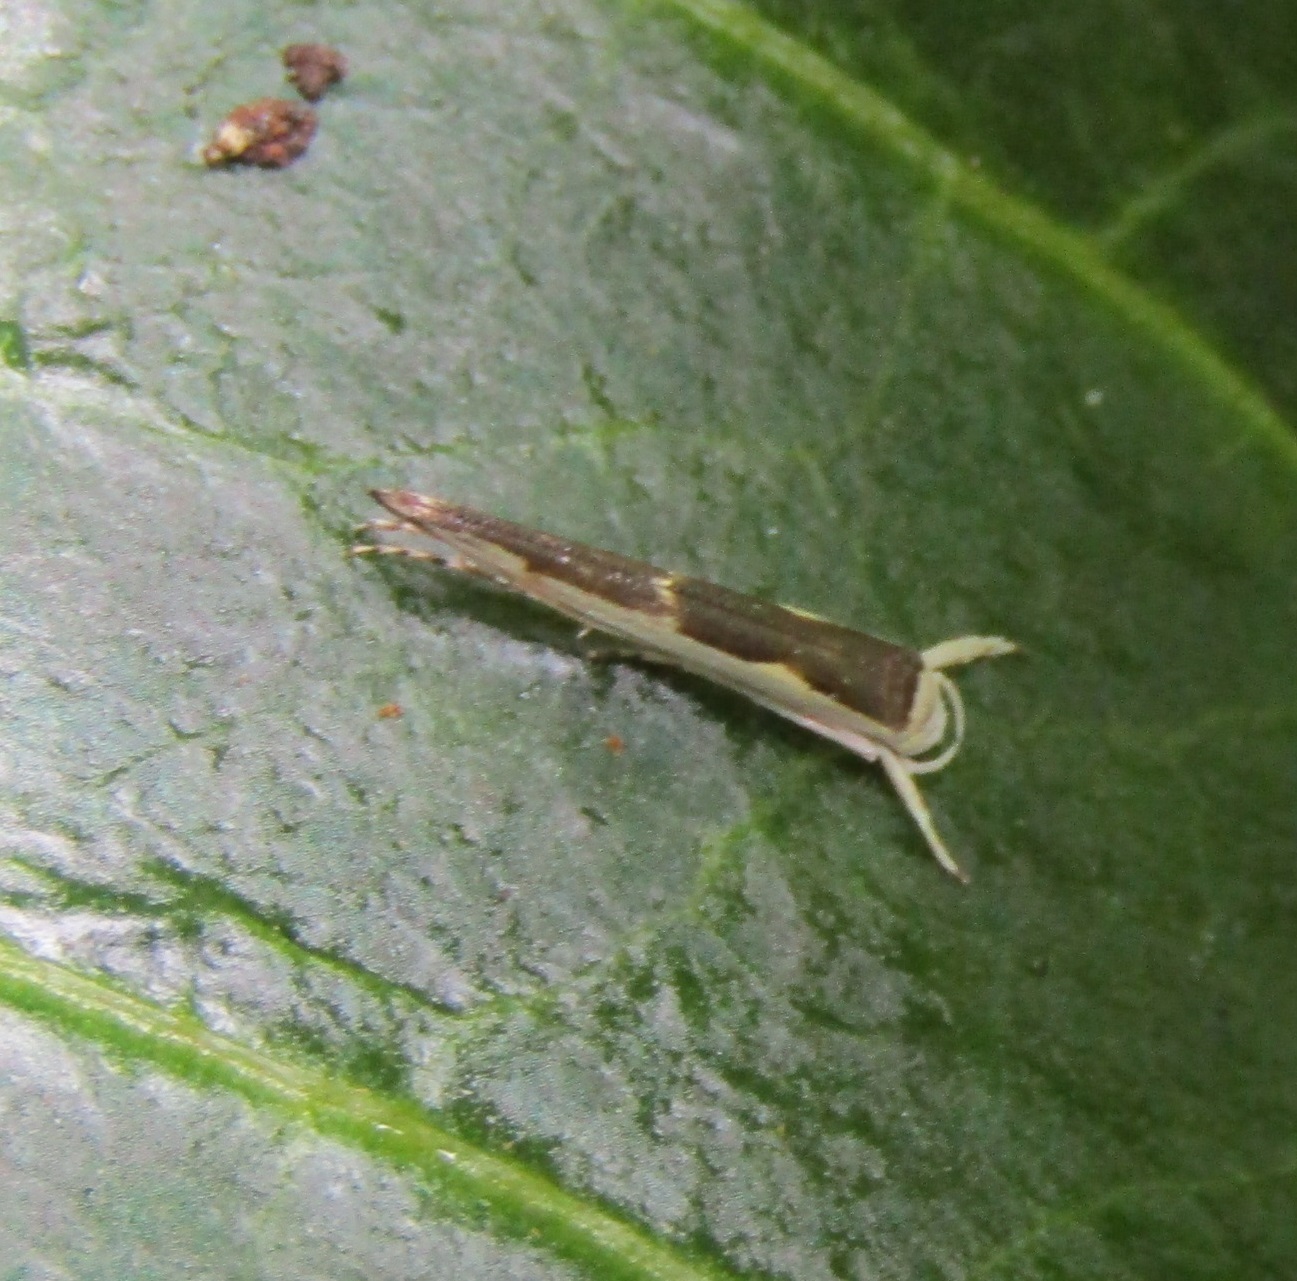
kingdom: Animalia
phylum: Arthropoda
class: Insecta
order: Lepidoptera
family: Roeslerstammiidae
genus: Vanicela
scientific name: Vanicela disjunctella
